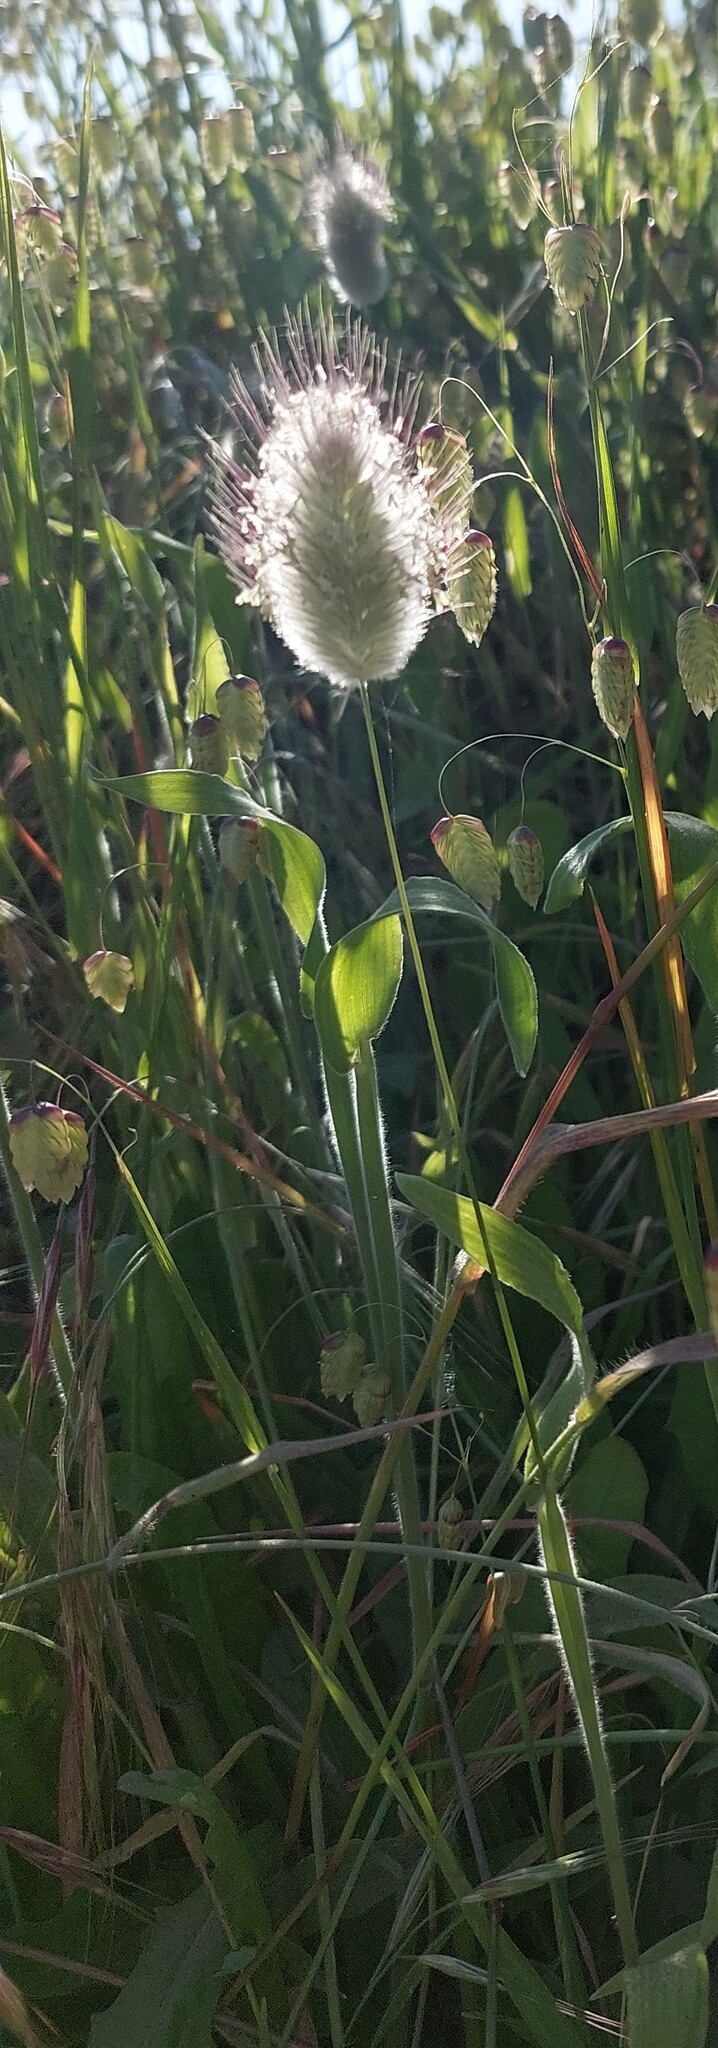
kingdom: Plantae
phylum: Tracheophyta
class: Liliopsida
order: Poales
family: Poaceae
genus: Lagurus
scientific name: Lagurus ovatus
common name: Hare's-tail
